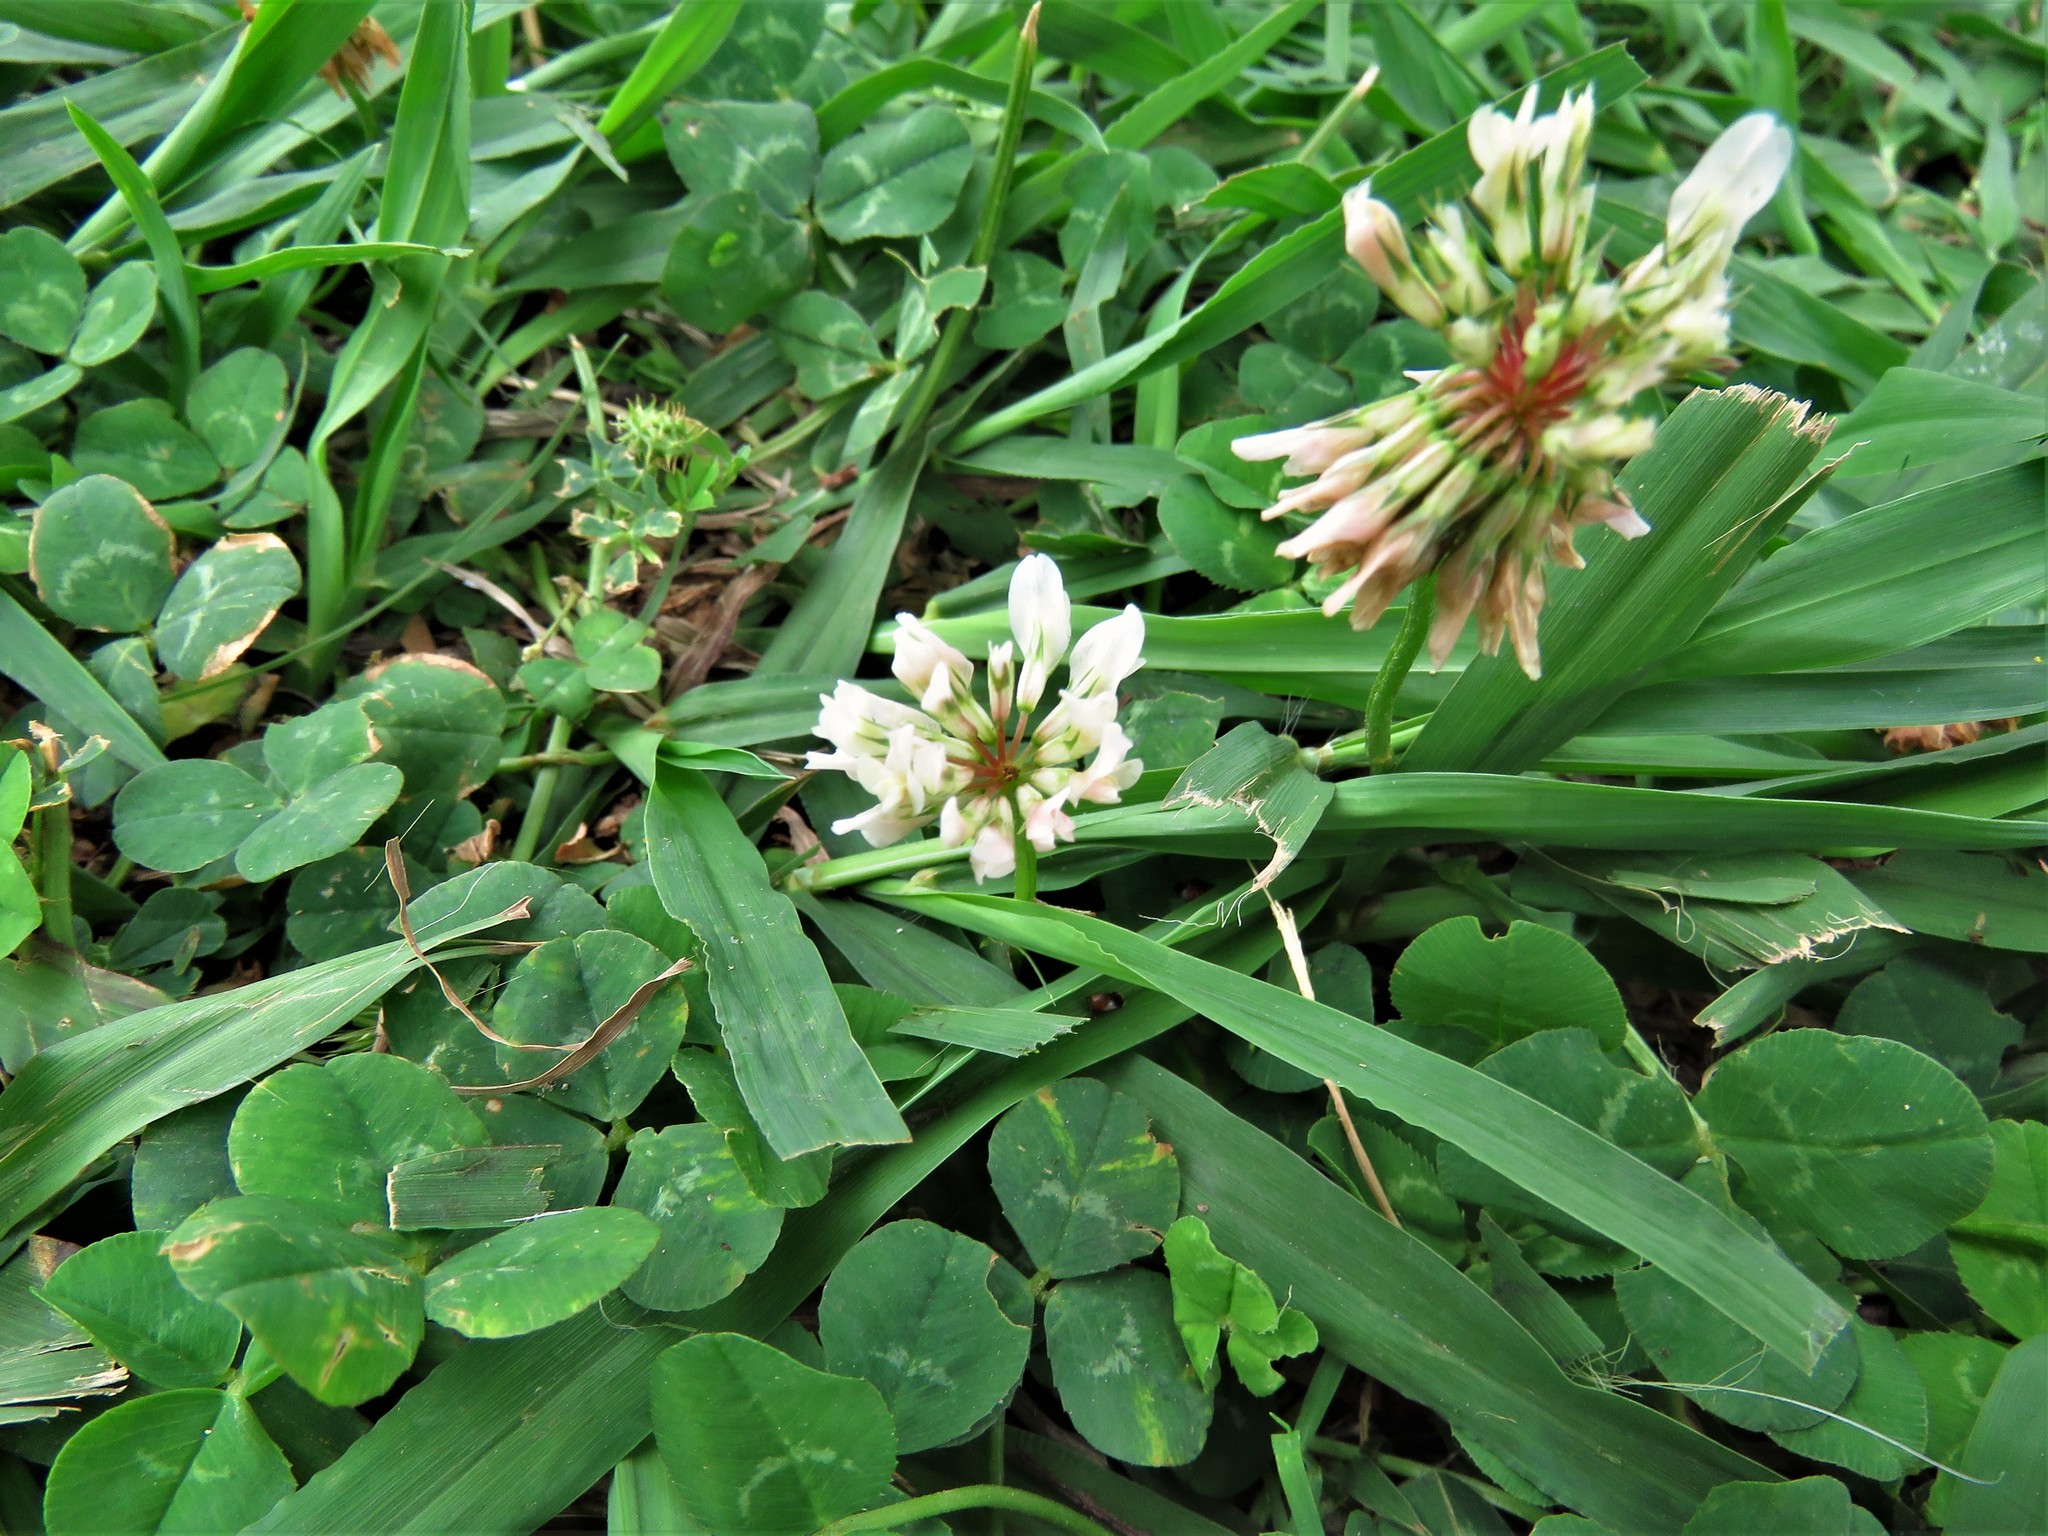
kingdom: Plantae
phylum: Tracheophyta
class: Magnoliopsida
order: Fabales
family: Fabaceae
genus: Trifolium
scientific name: Trifolium repens
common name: White clover
